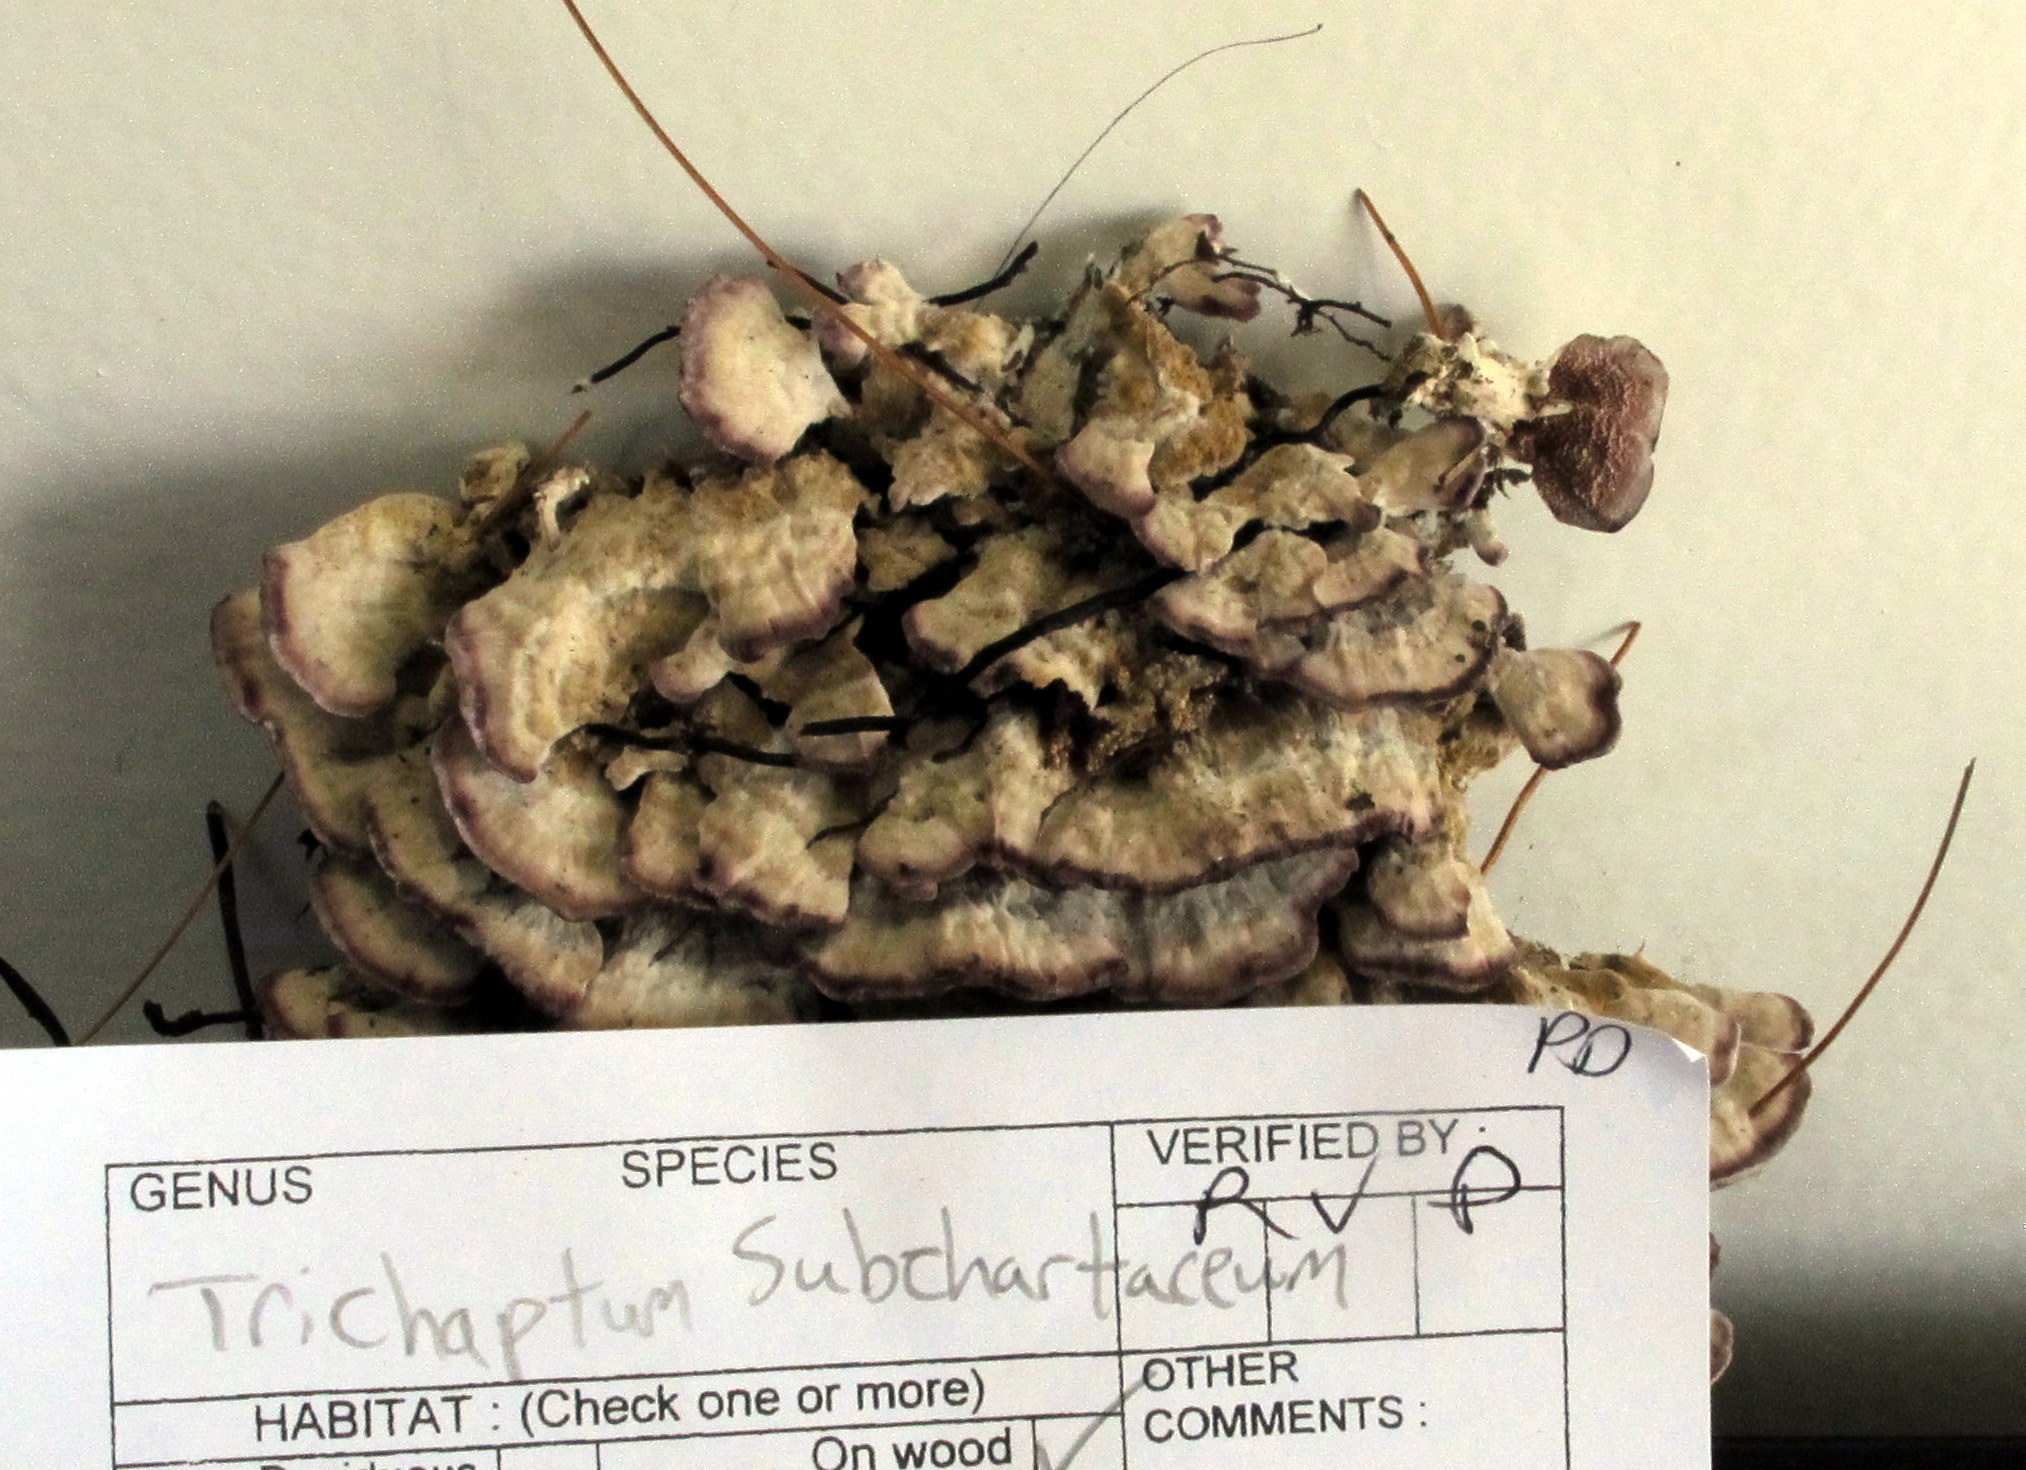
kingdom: Fungi
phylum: Basidiomycota
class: Agaricomycetes
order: Hymenochaetales
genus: Trichaptum
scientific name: Trichaptum subchartaceum
